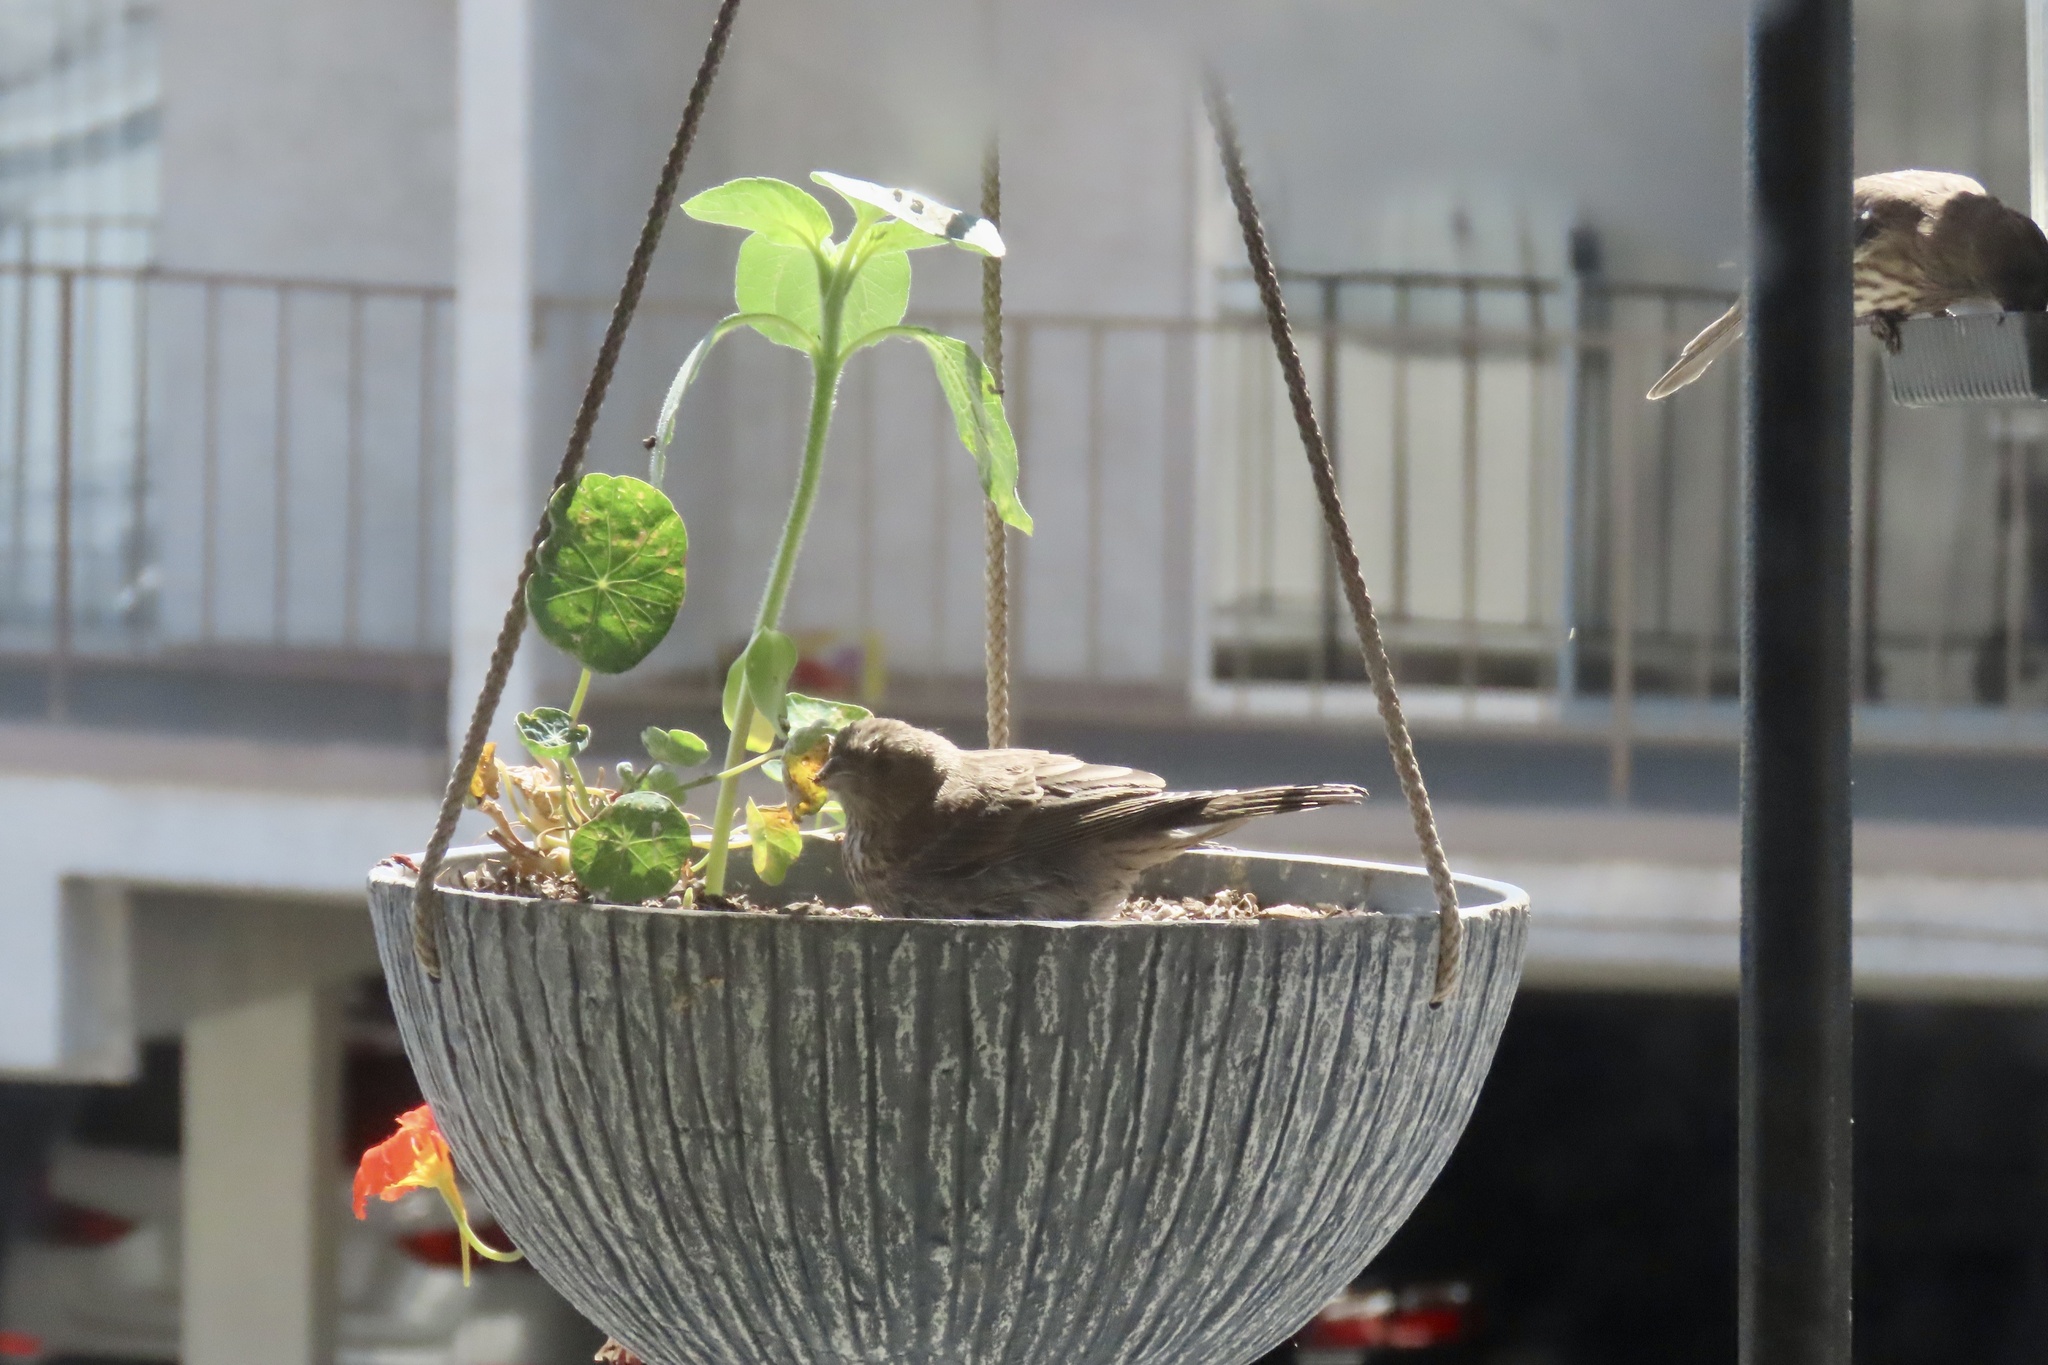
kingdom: Animalia
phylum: Chordata
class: Aves
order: Passeriformes
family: Fringillidae
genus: Haemorhous
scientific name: Haemorhous mexicanus
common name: House finch
